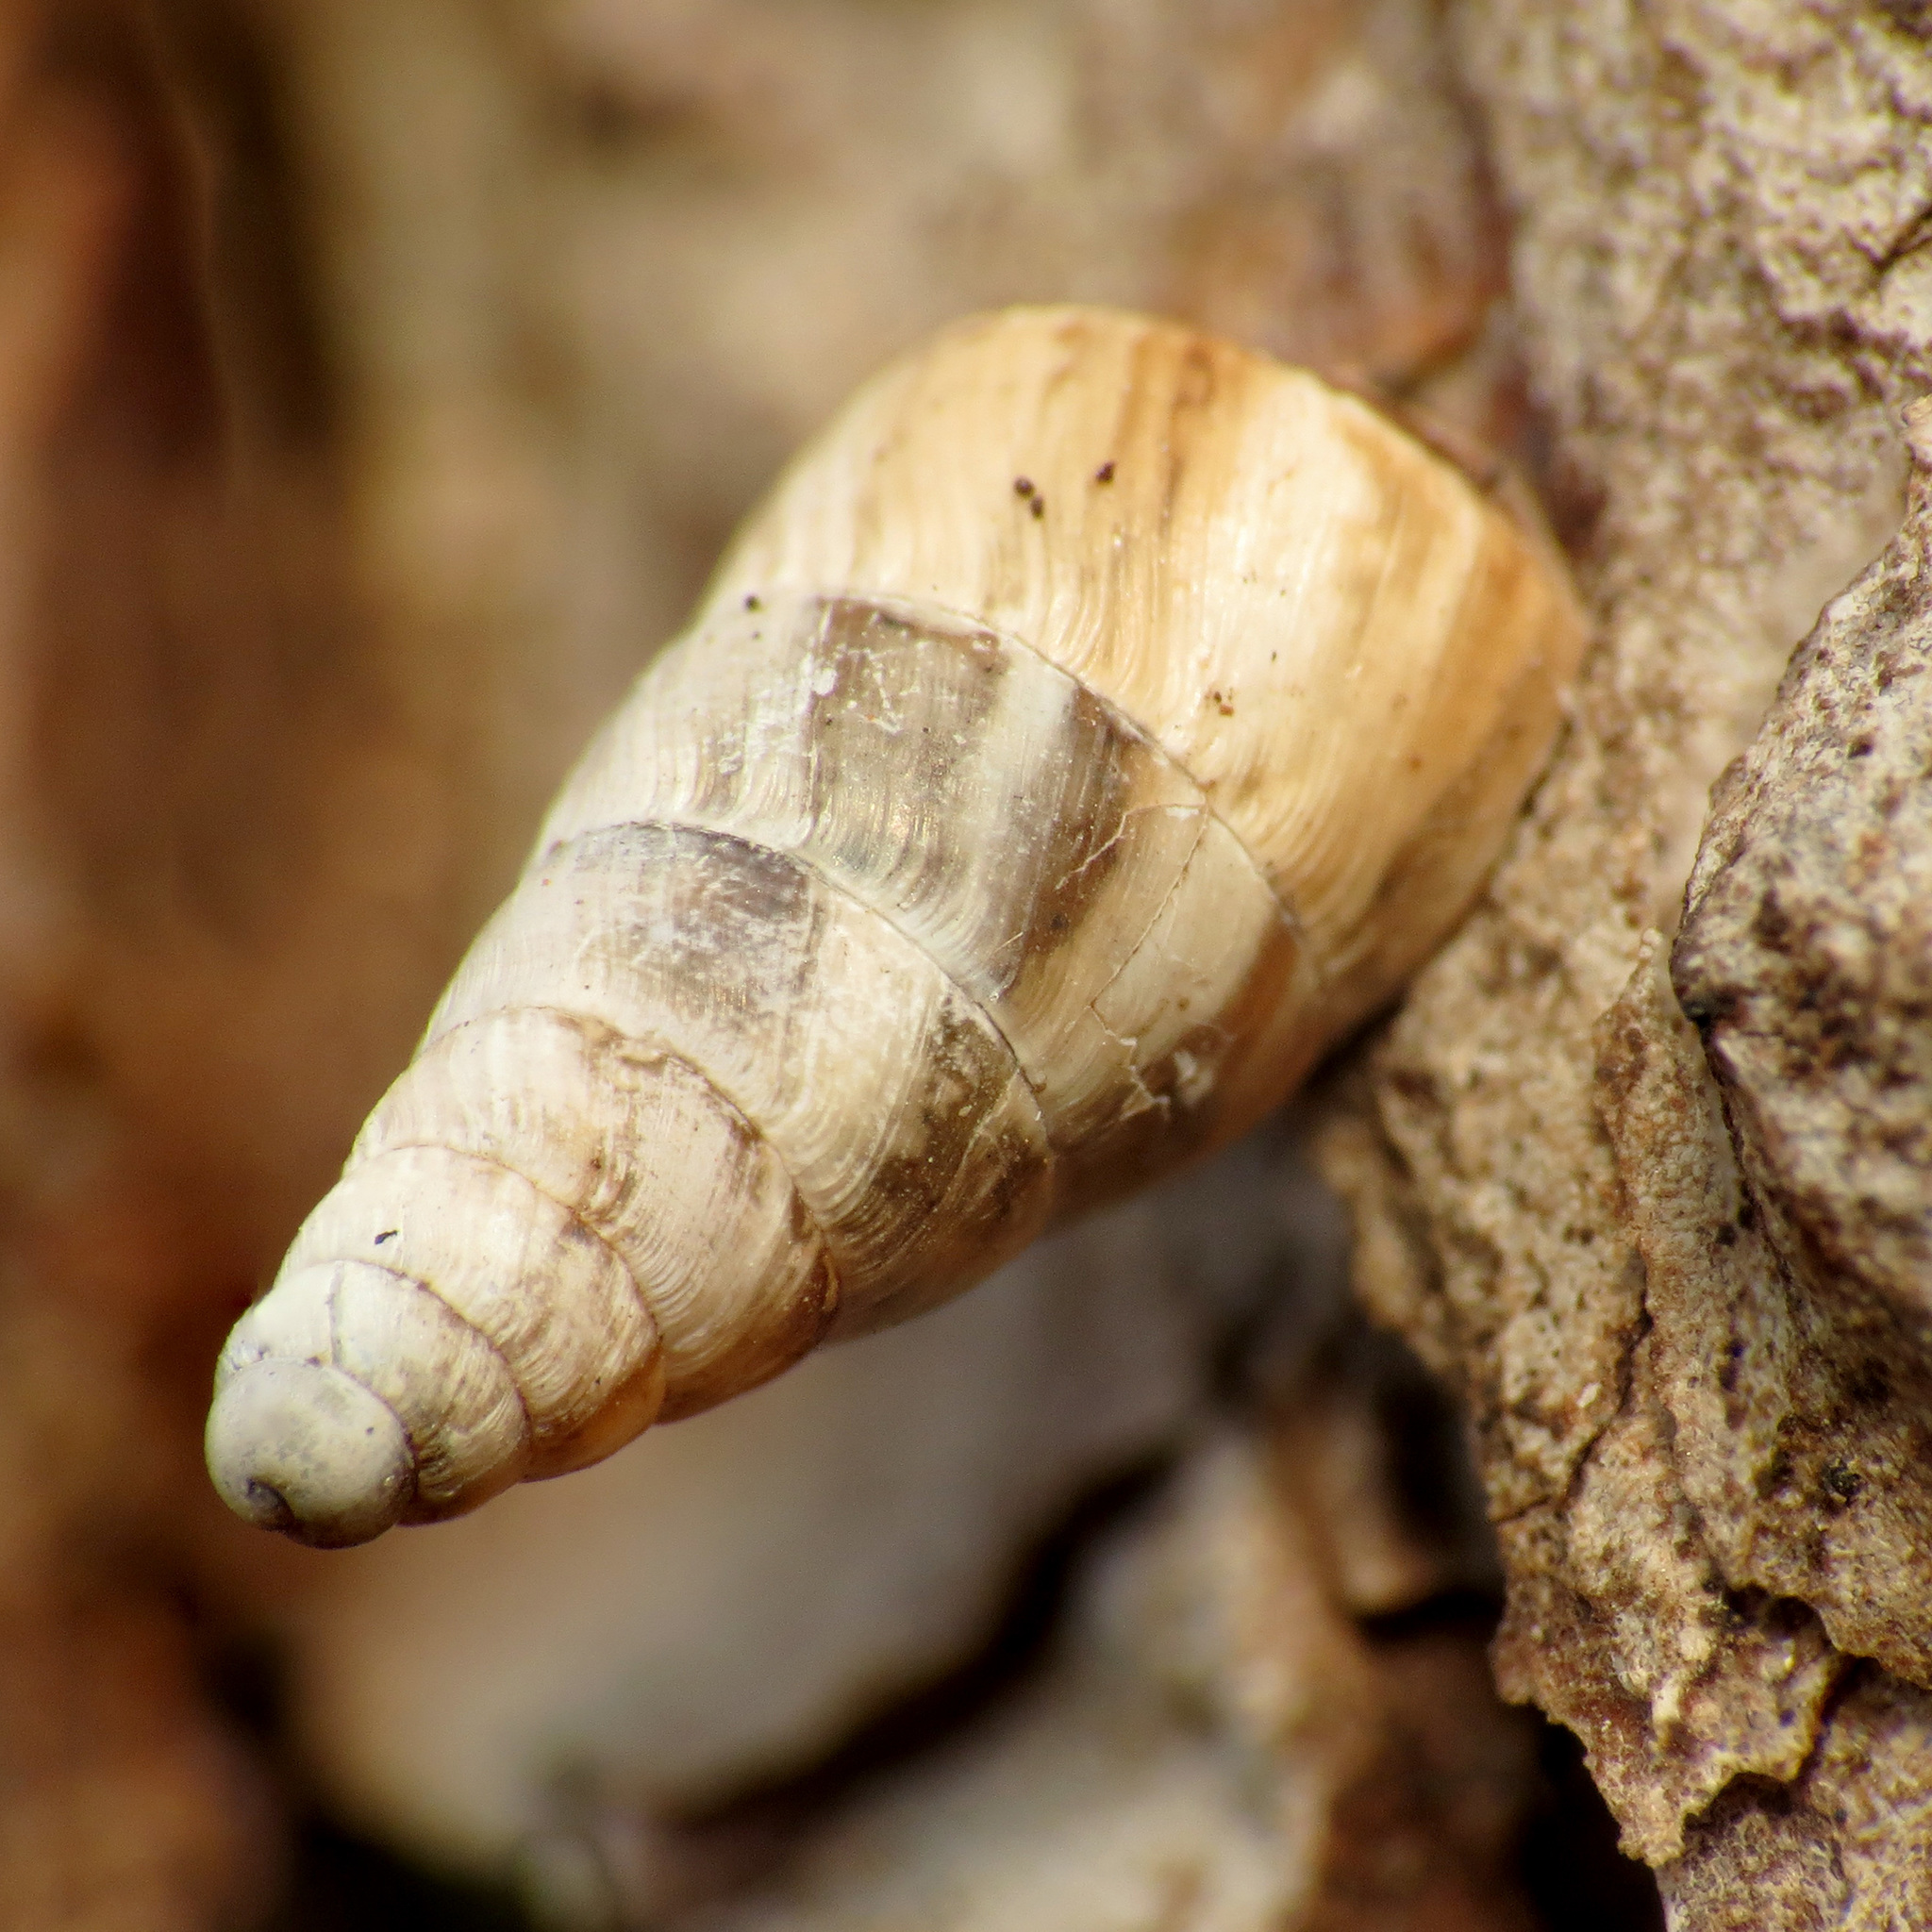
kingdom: Animalia
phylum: Mollusca
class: Gastropoda
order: Stylommatophora
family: Geomitridae
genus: Cochlicella
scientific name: Cochlicella acuta
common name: Pointed snail
